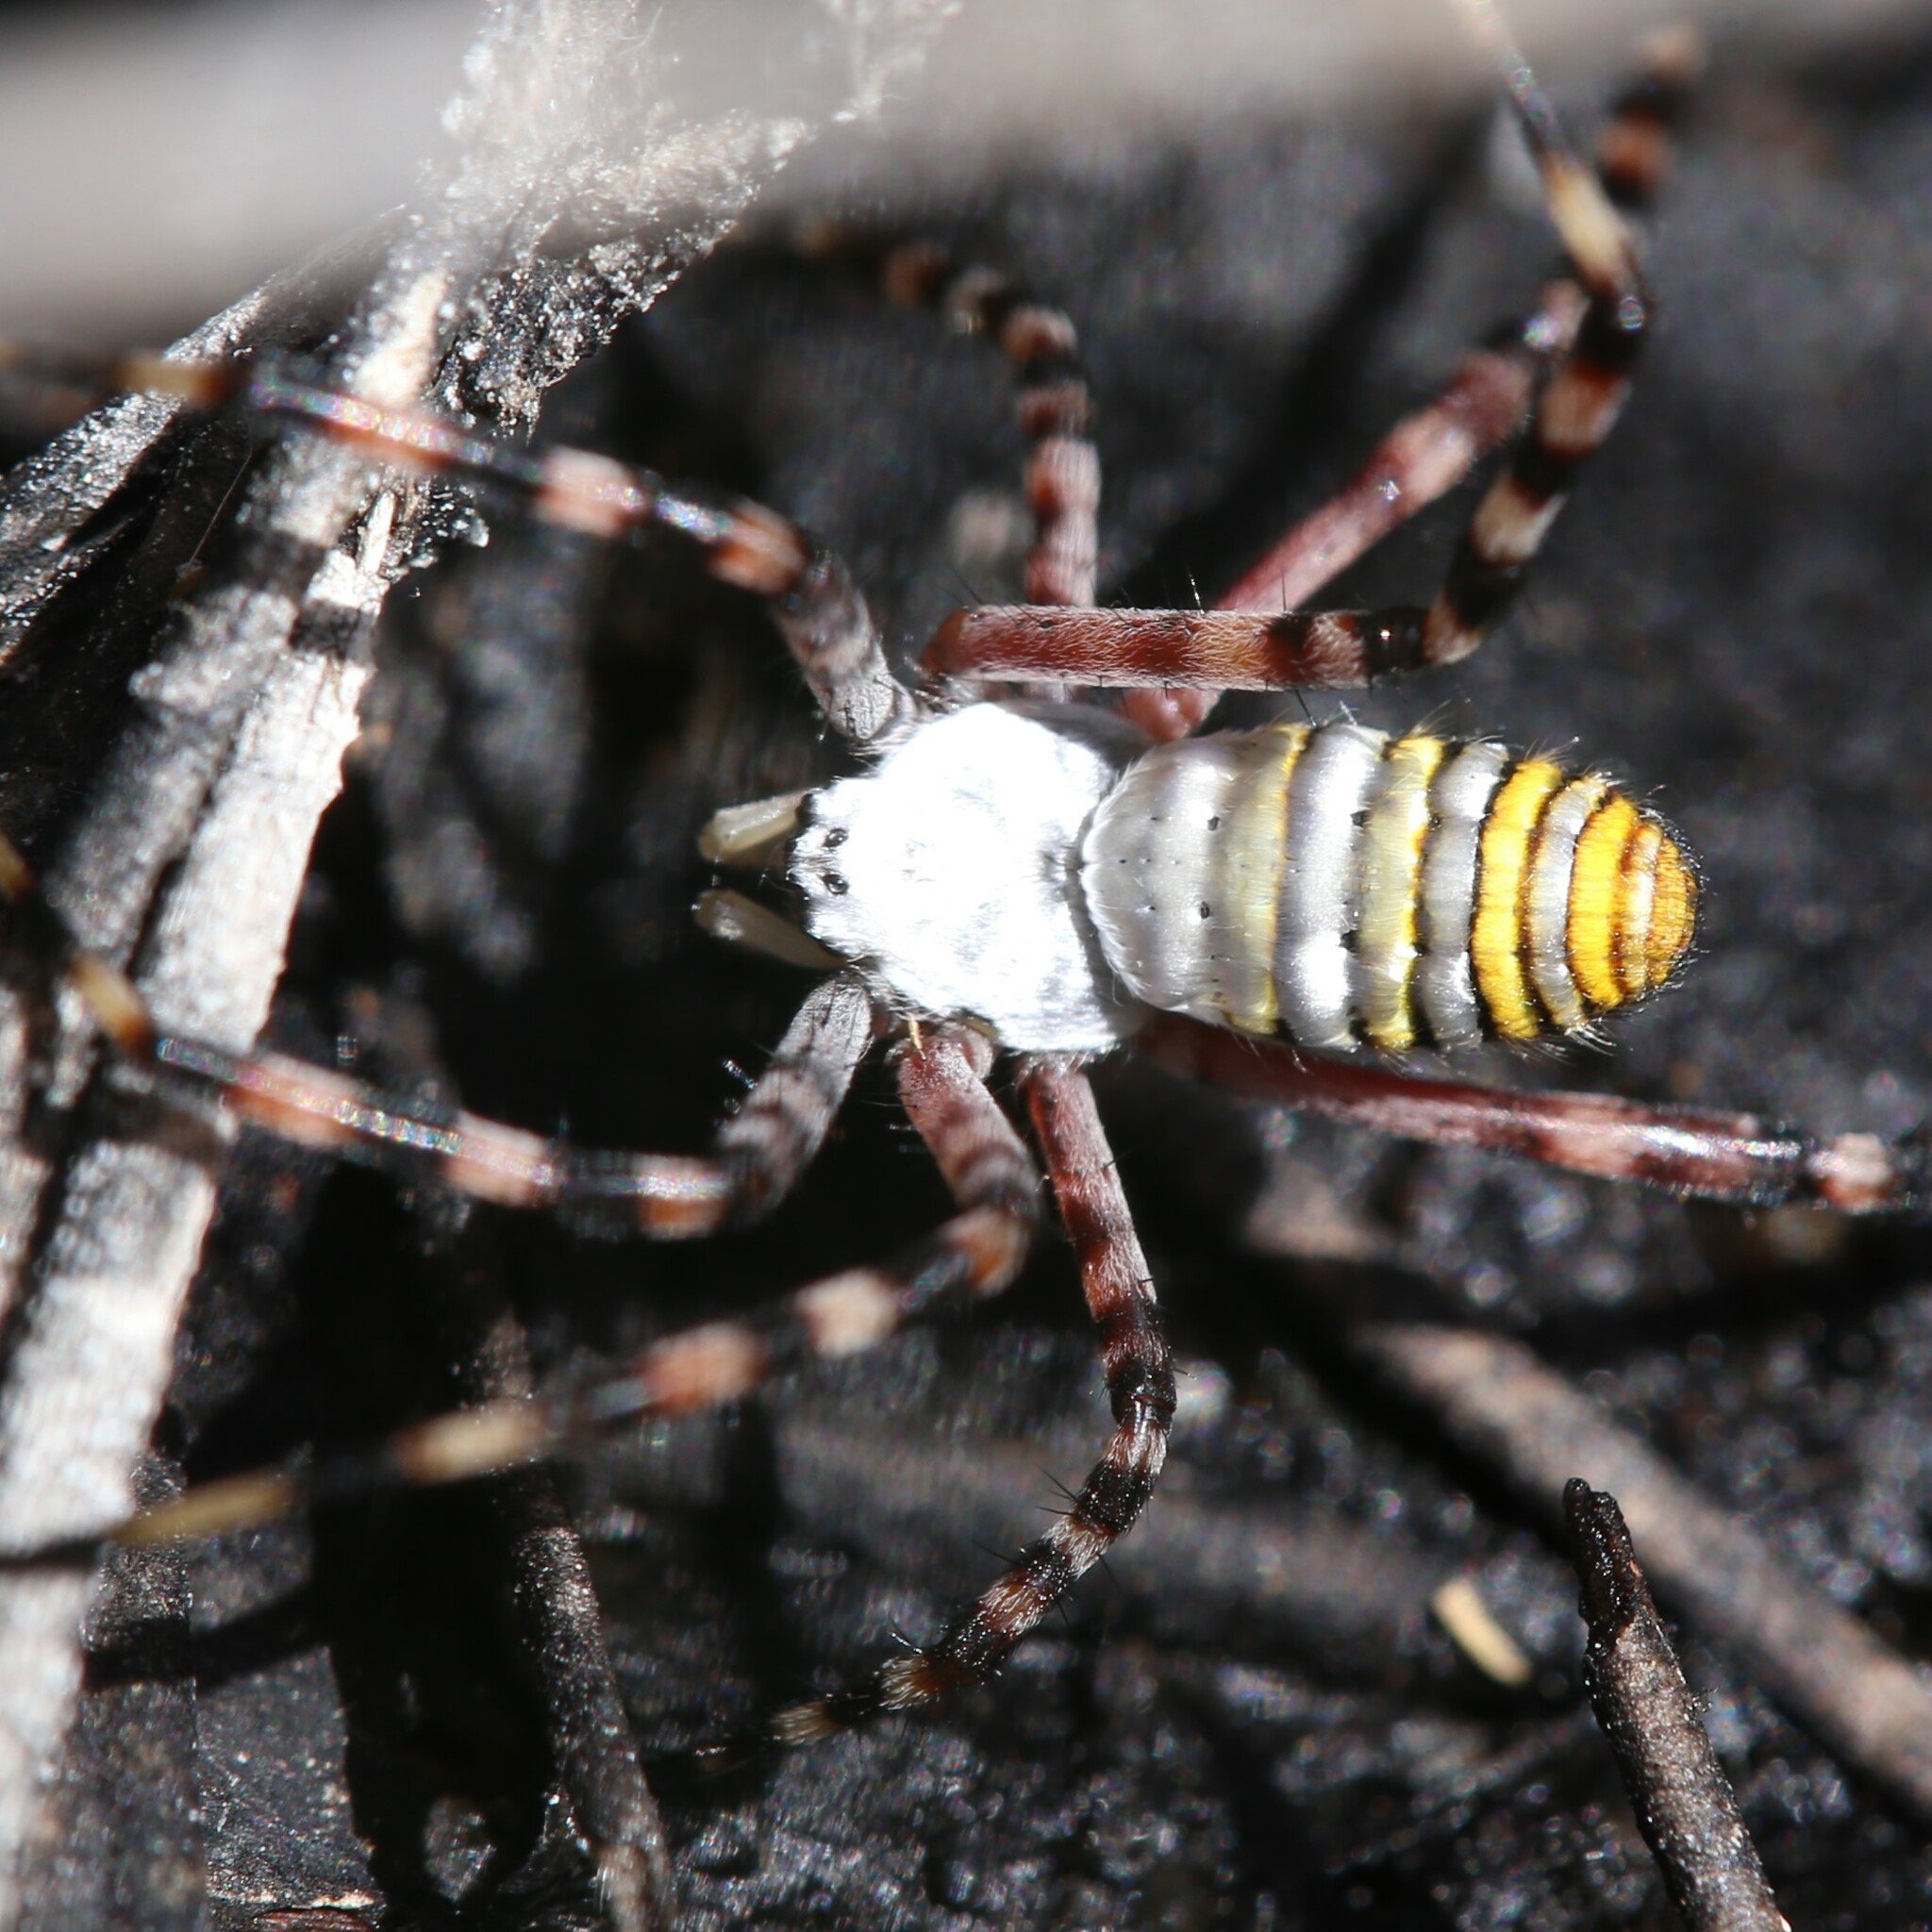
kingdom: Animalia
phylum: Arthropoda
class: Arachnida
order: Araneae
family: Araneidae
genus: Argiope
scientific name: Argiope trifasciata
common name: Banded garden spider
